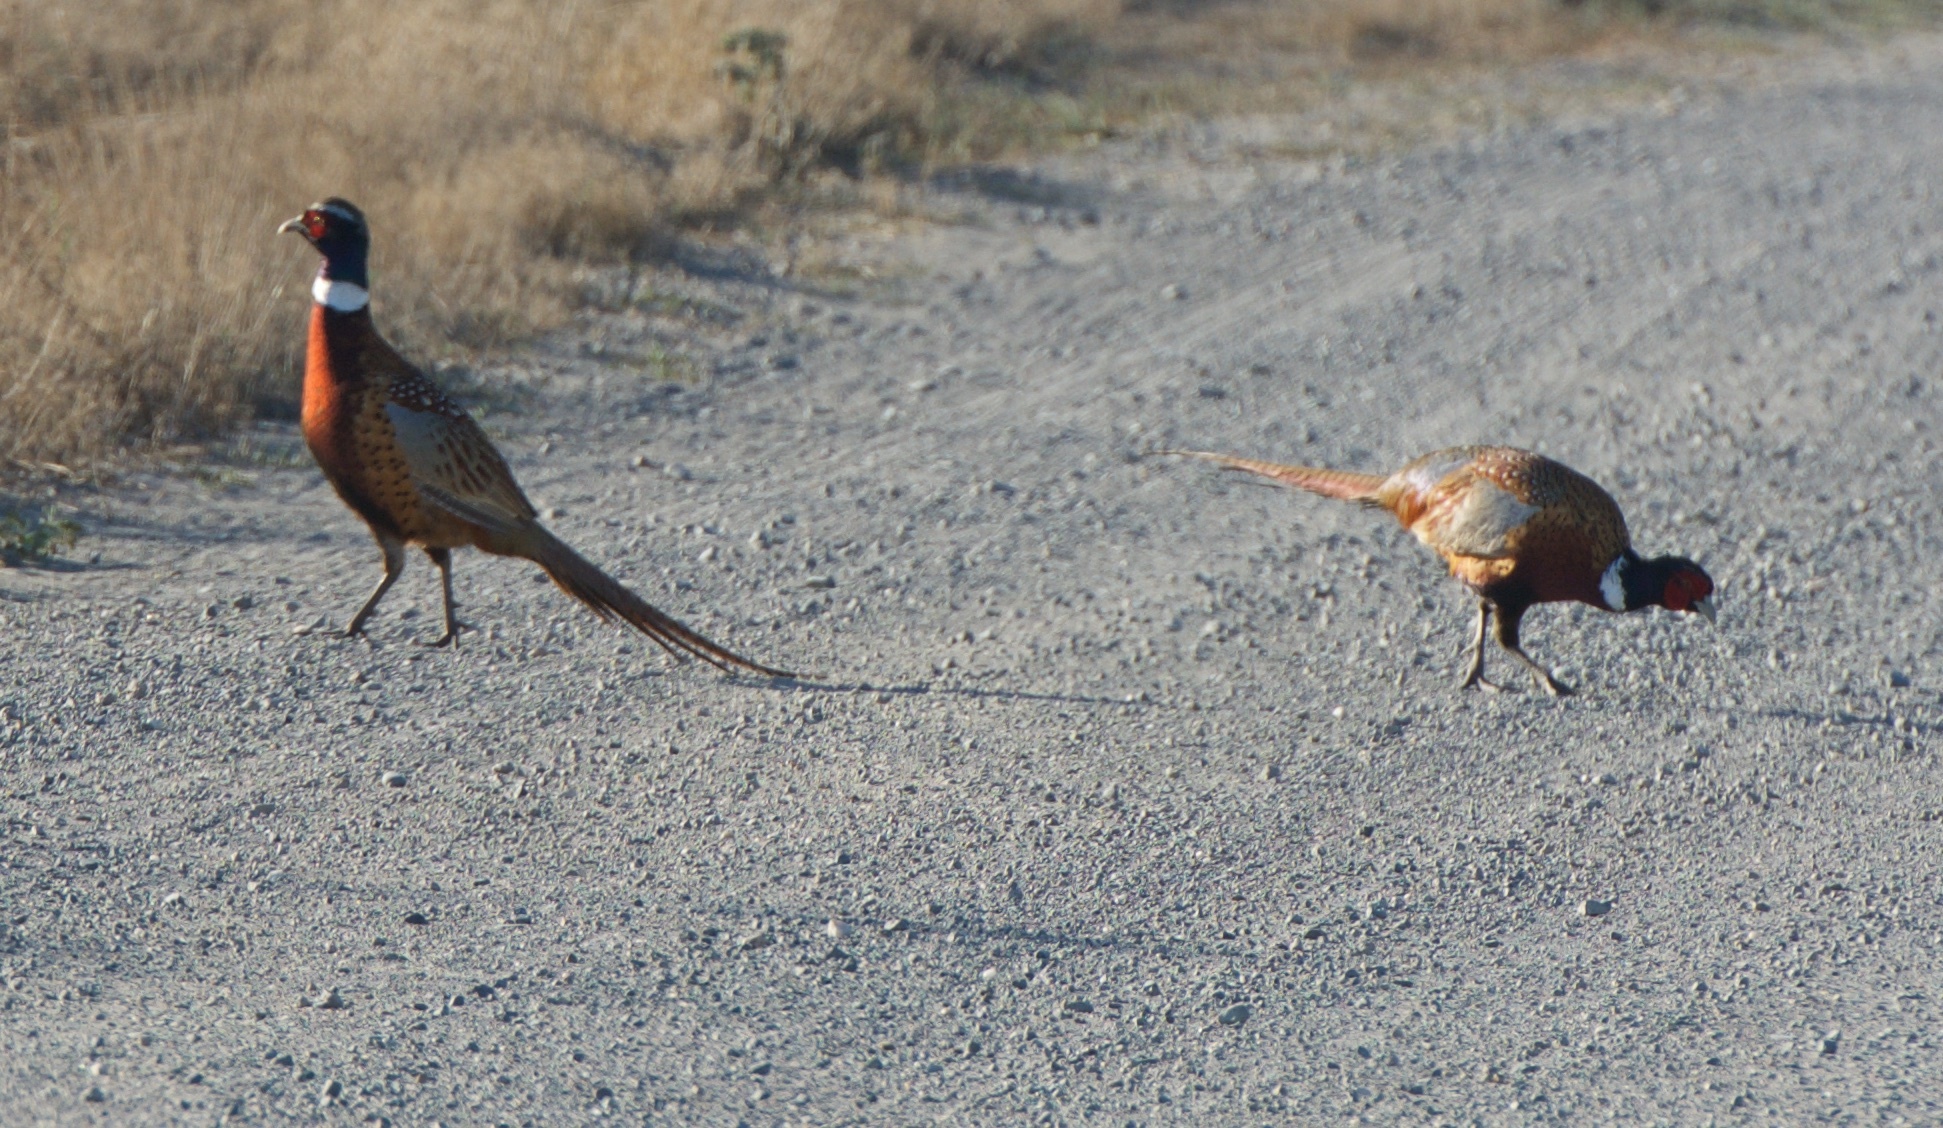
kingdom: Animalia
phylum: Chordata
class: Aves
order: Galliformes
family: Phasianidae
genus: Phasianus
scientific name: Phasianus colchicus
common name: Common pheasant
